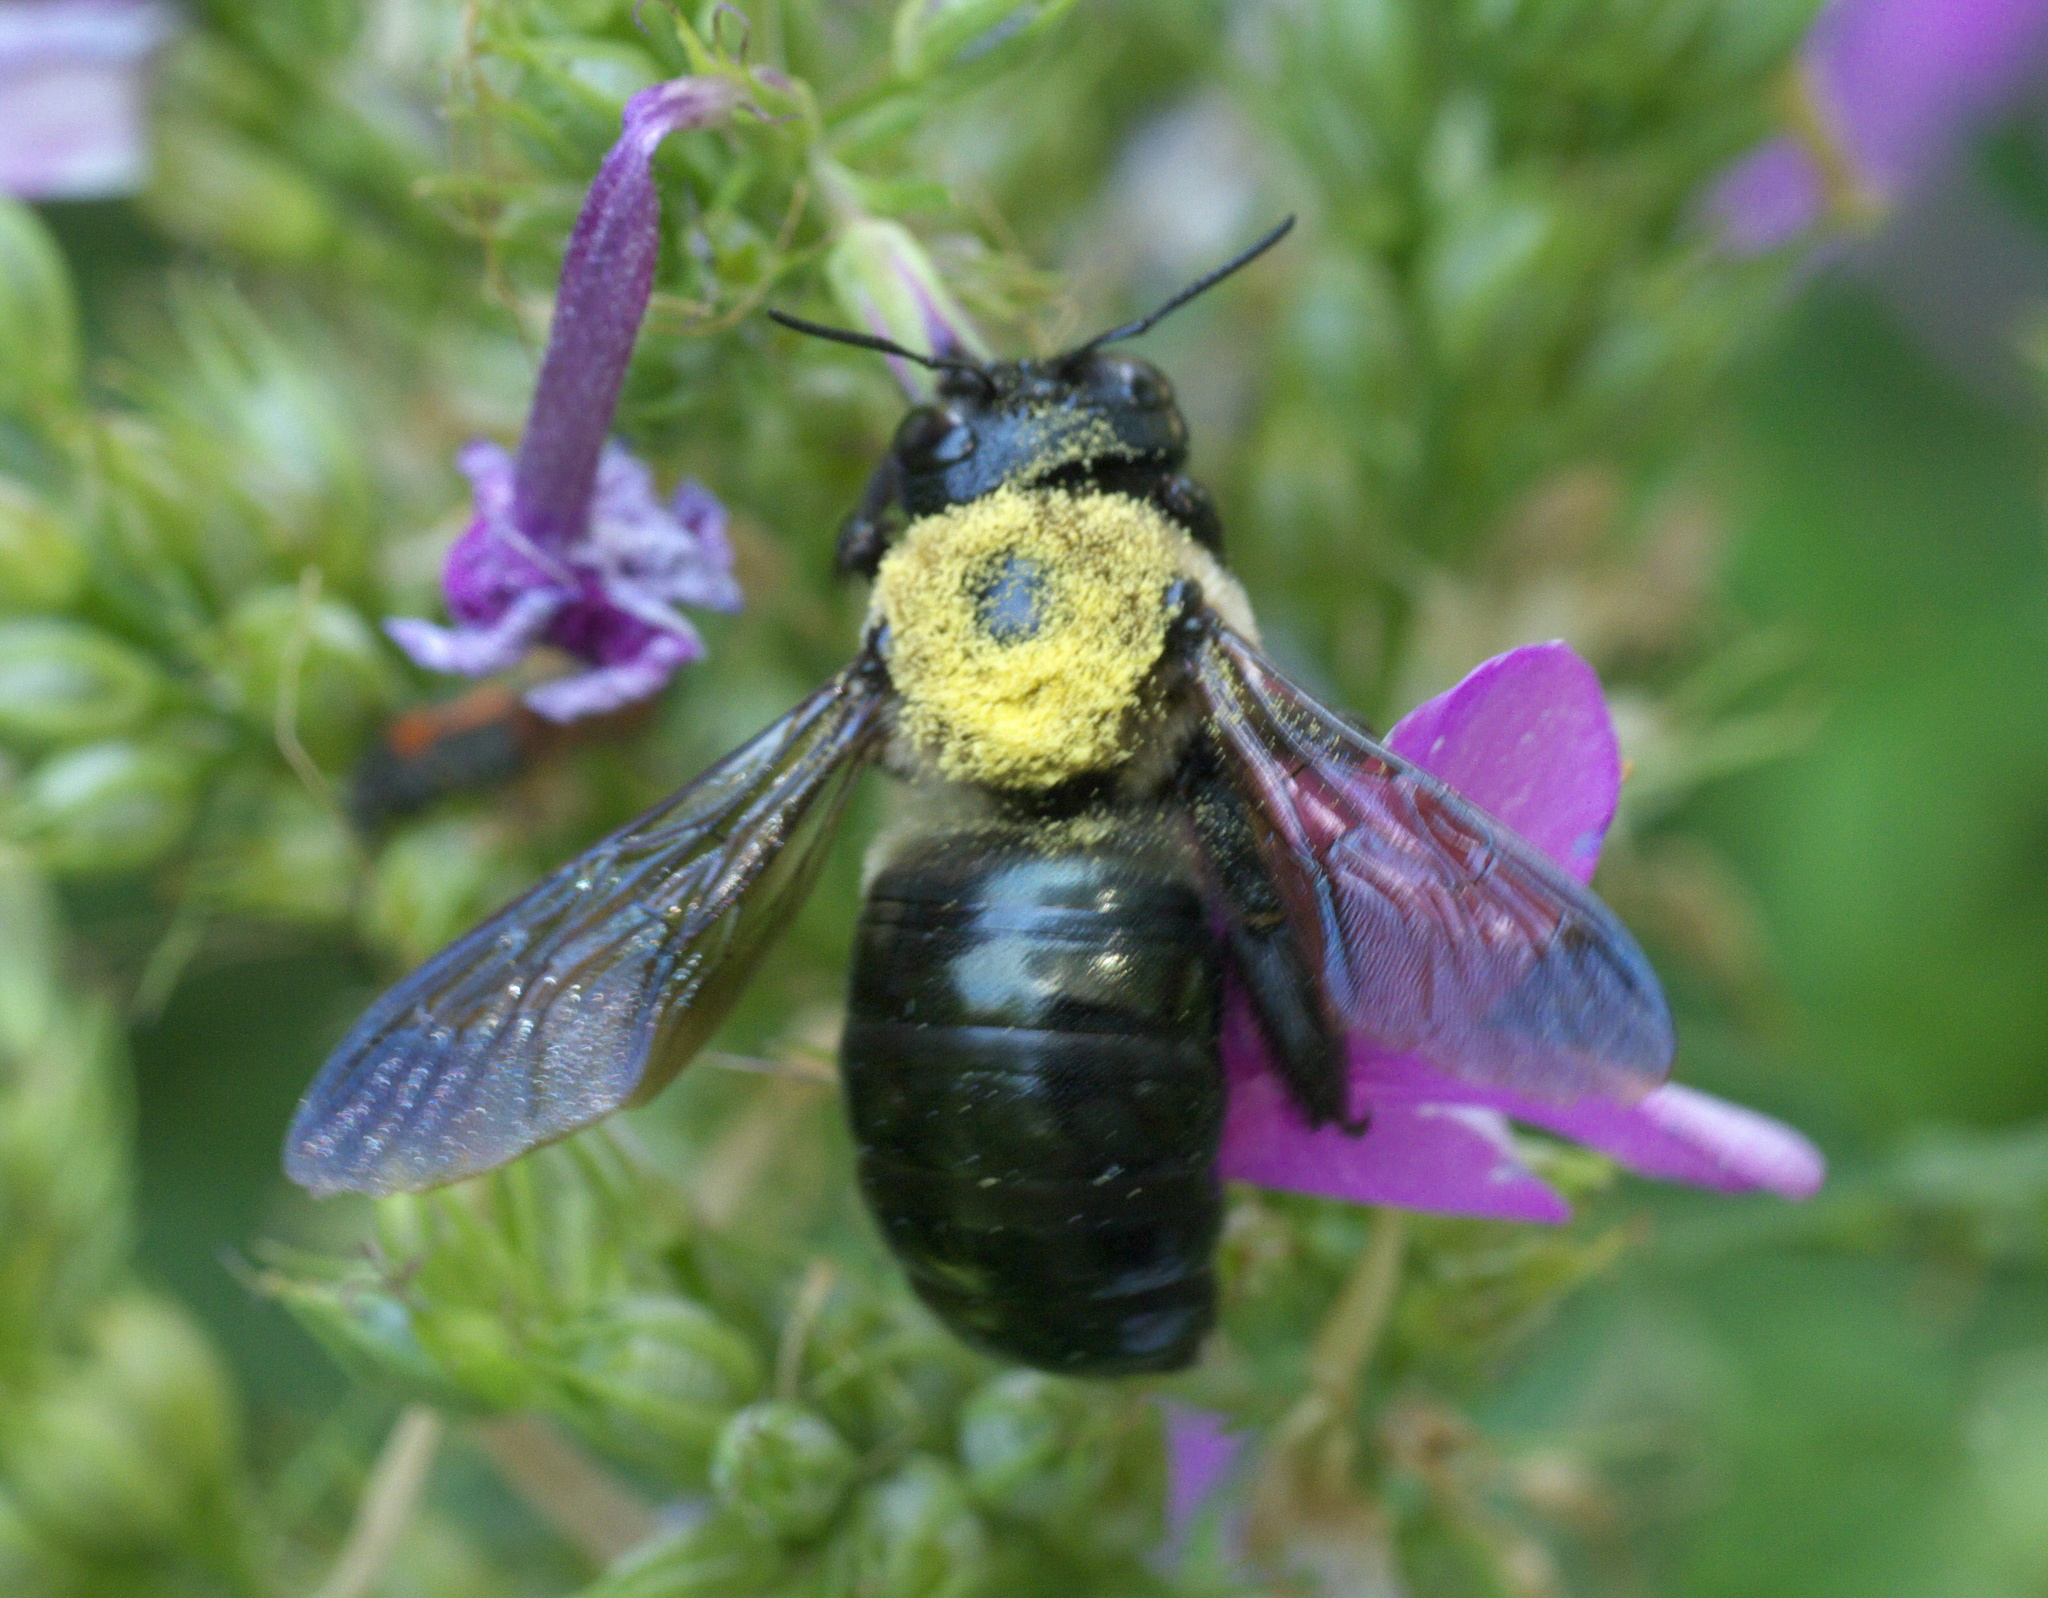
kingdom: Animalia
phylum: Arthropoda
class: Insecta
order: Hymenoptera
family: Apidae
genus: Xylocopa
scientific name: Xylocopa virginica
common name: Carpenter bee
